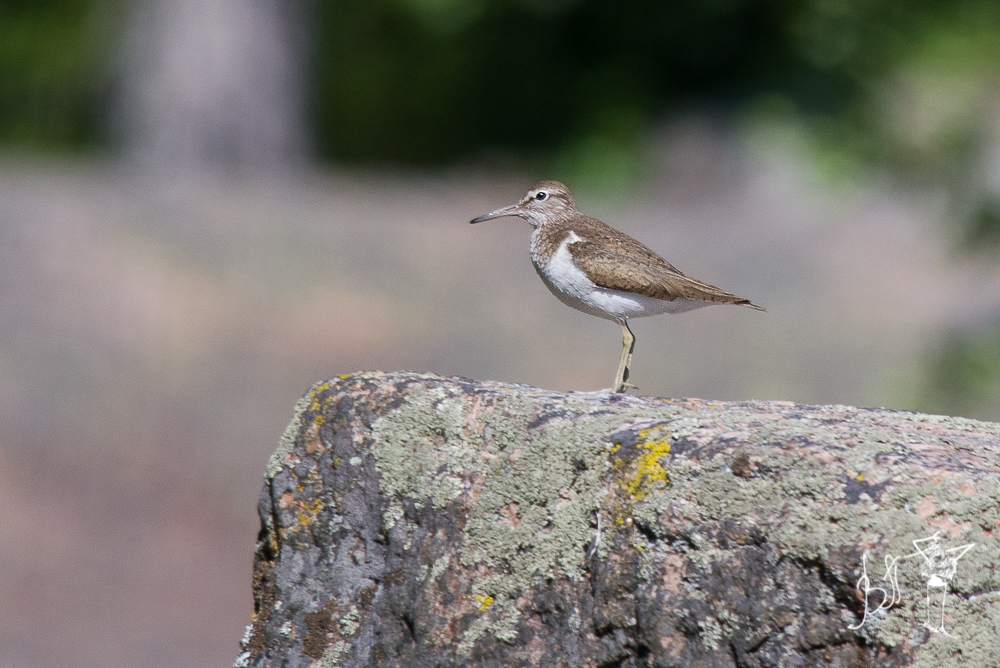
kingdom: Animalia
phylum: Chordata
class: Aves
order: Charadriiformes
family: Scolopacidae
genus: Actitis
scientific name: Actitis hypoleucos
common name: Common sandpiper
